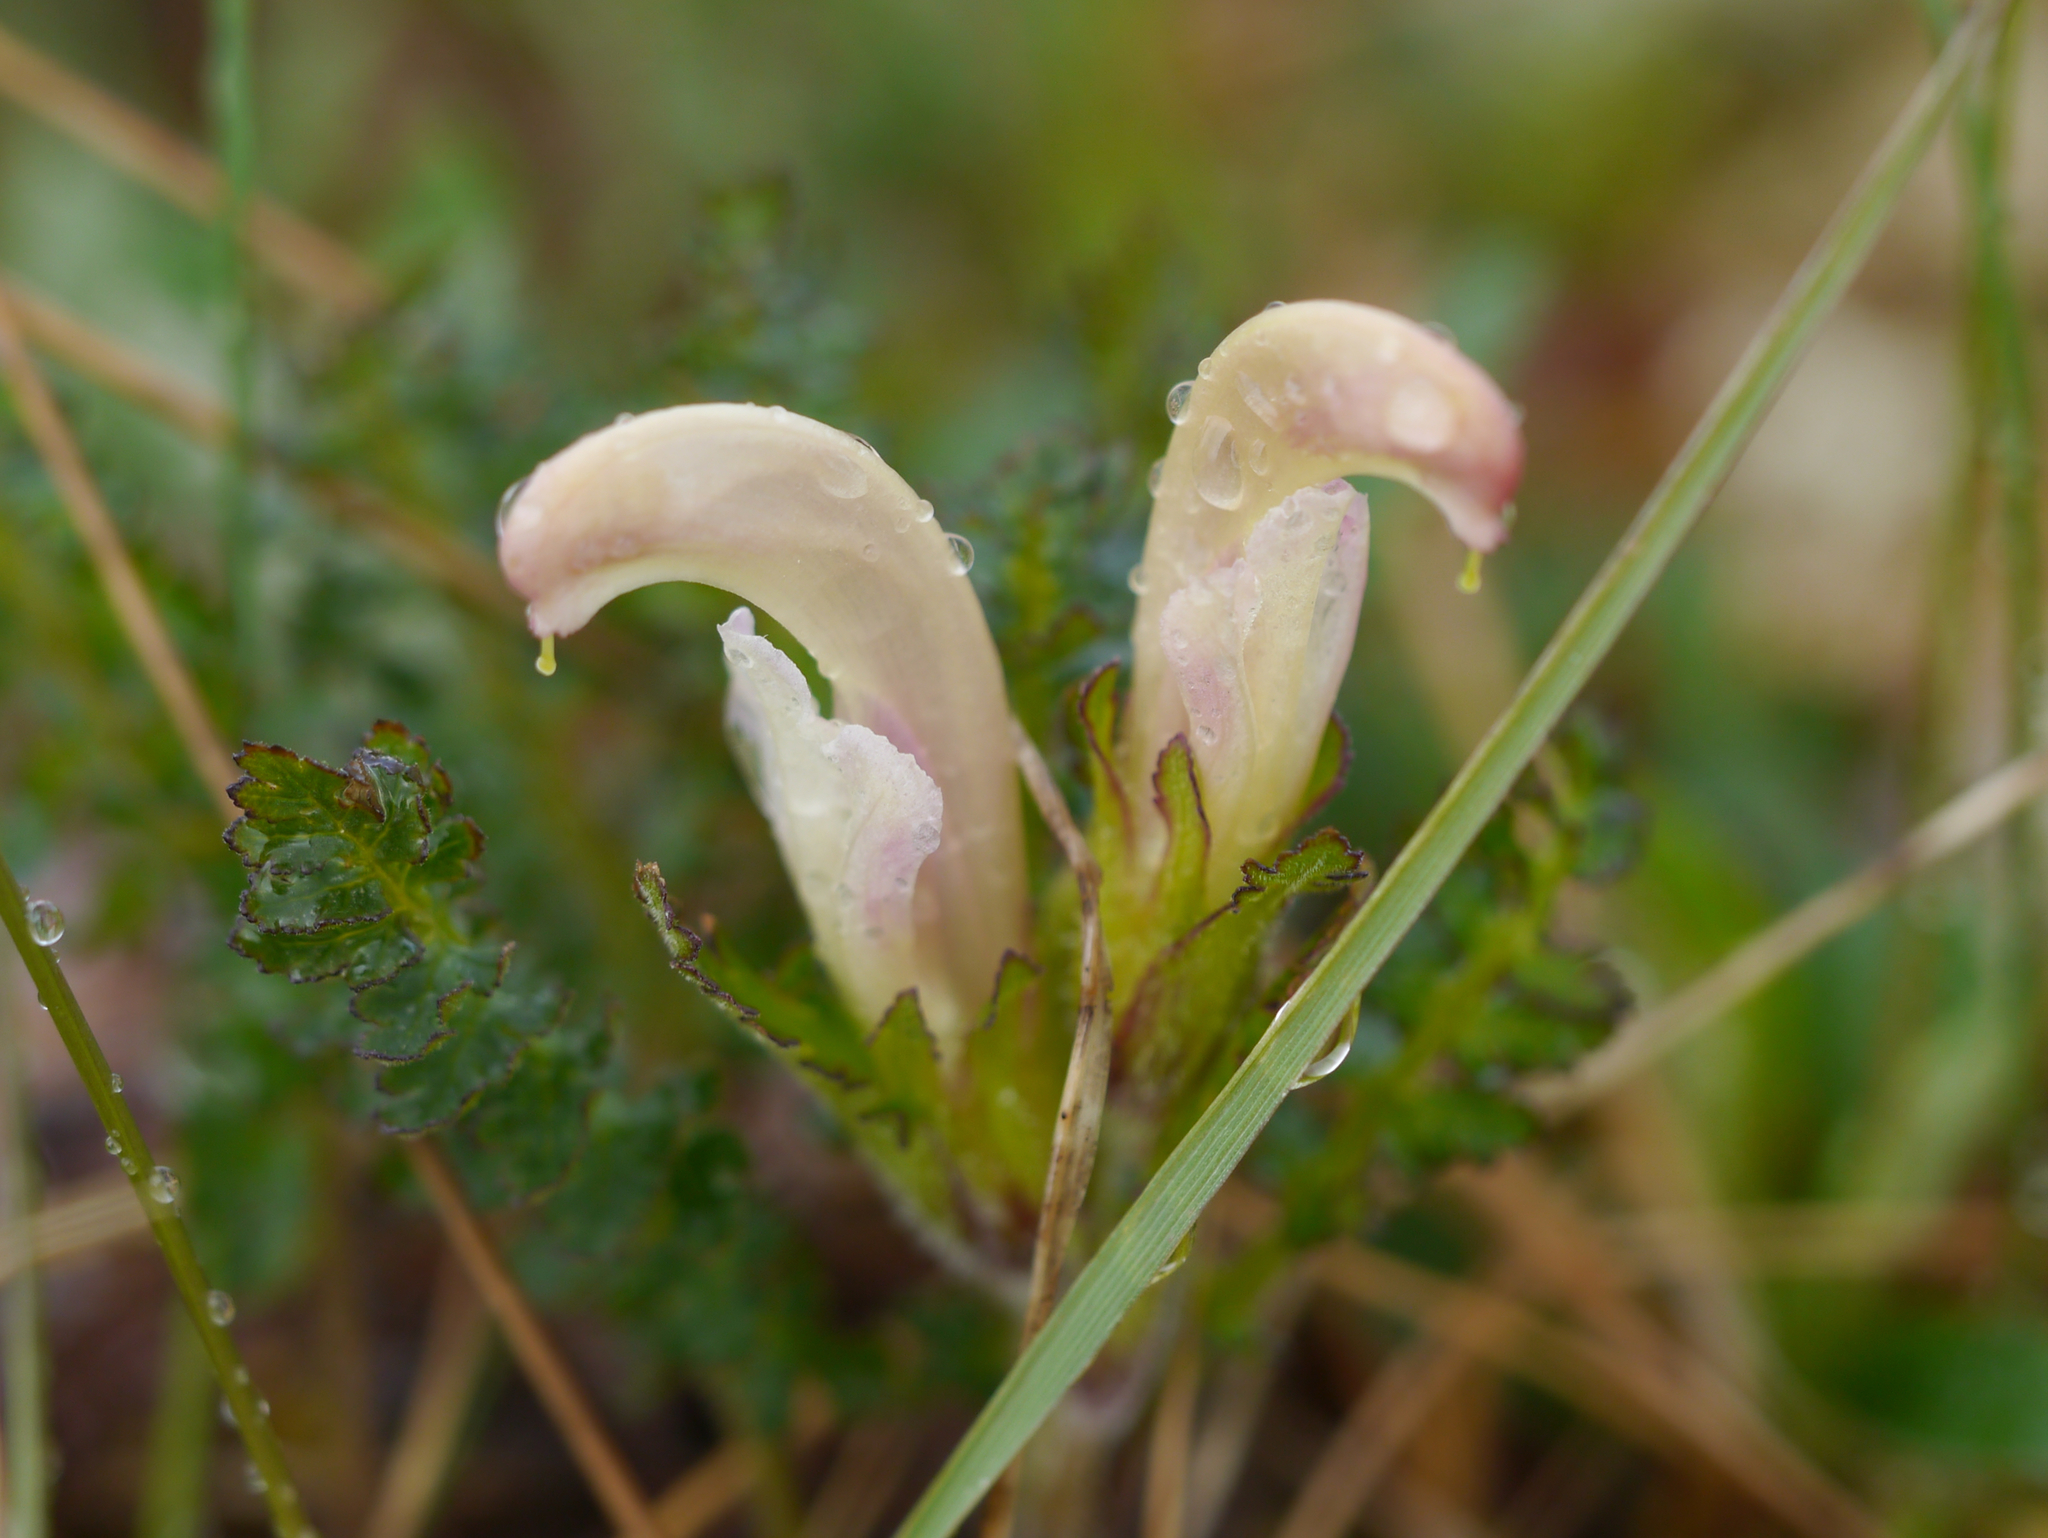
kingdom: Plantae
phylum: Tracheophyta
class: Magnoliopsida
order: Lamiales
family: Orobanchaceae
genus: Pedicularis
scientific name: Pedicularis capitata
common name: Capitate lousewort
